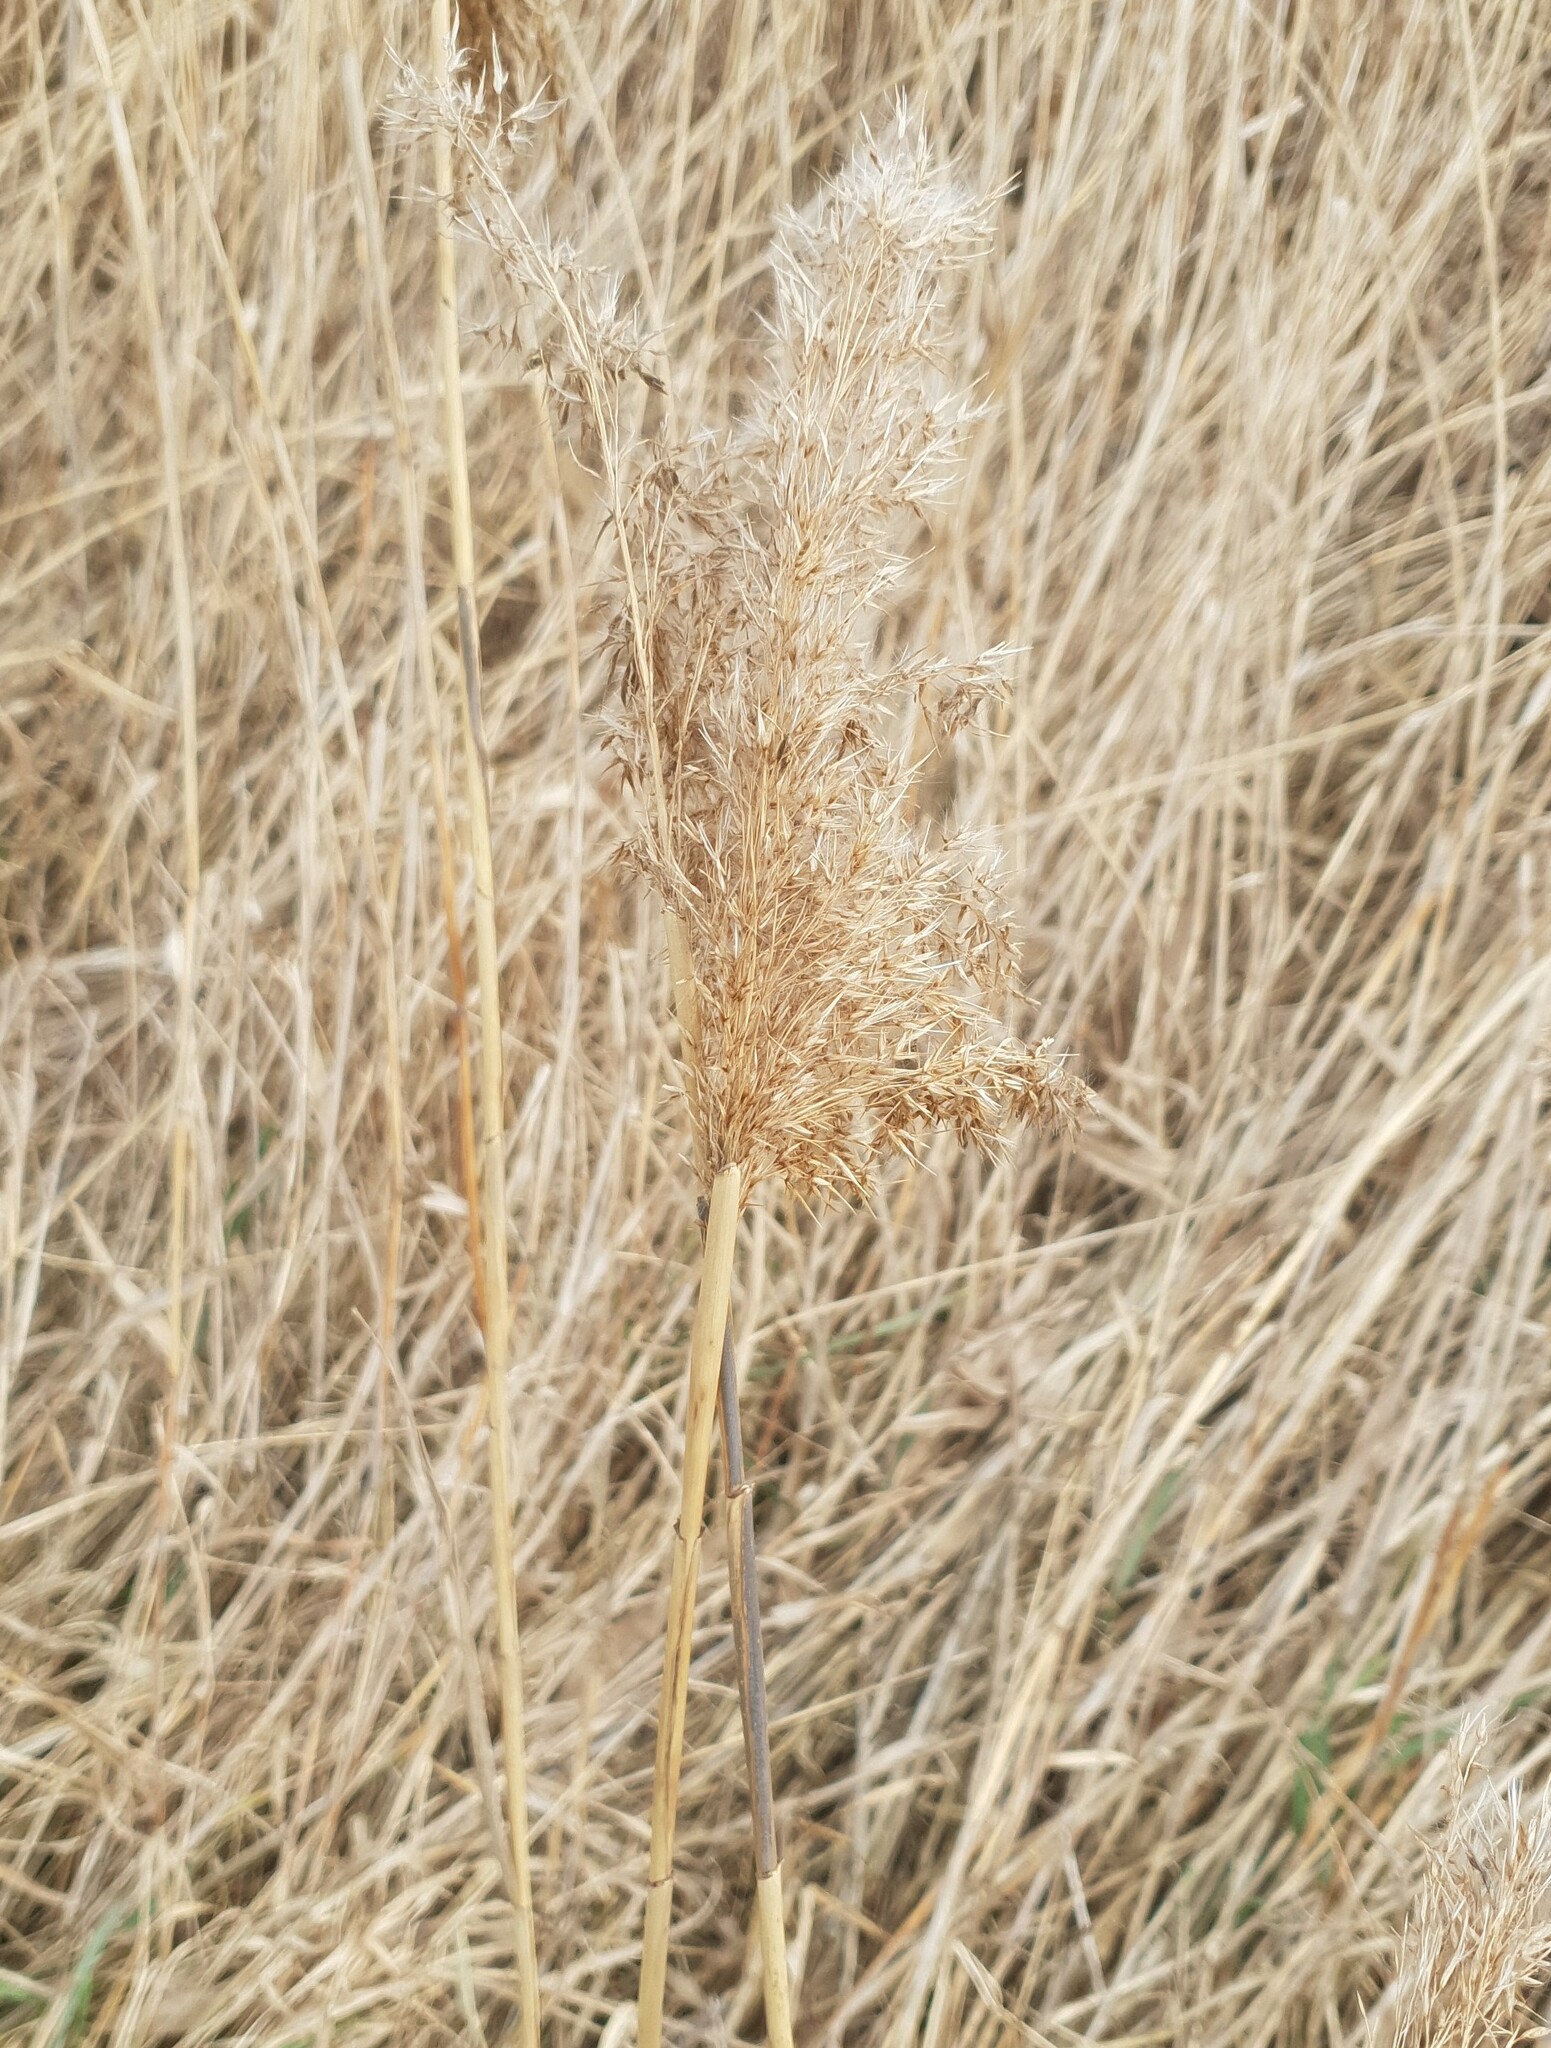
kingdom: Plantae
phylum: Tracheophyta
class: Liliopsida
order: Poales
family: Poaceae
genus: Phragmites
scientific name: Phragmites australis
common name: Common reed
